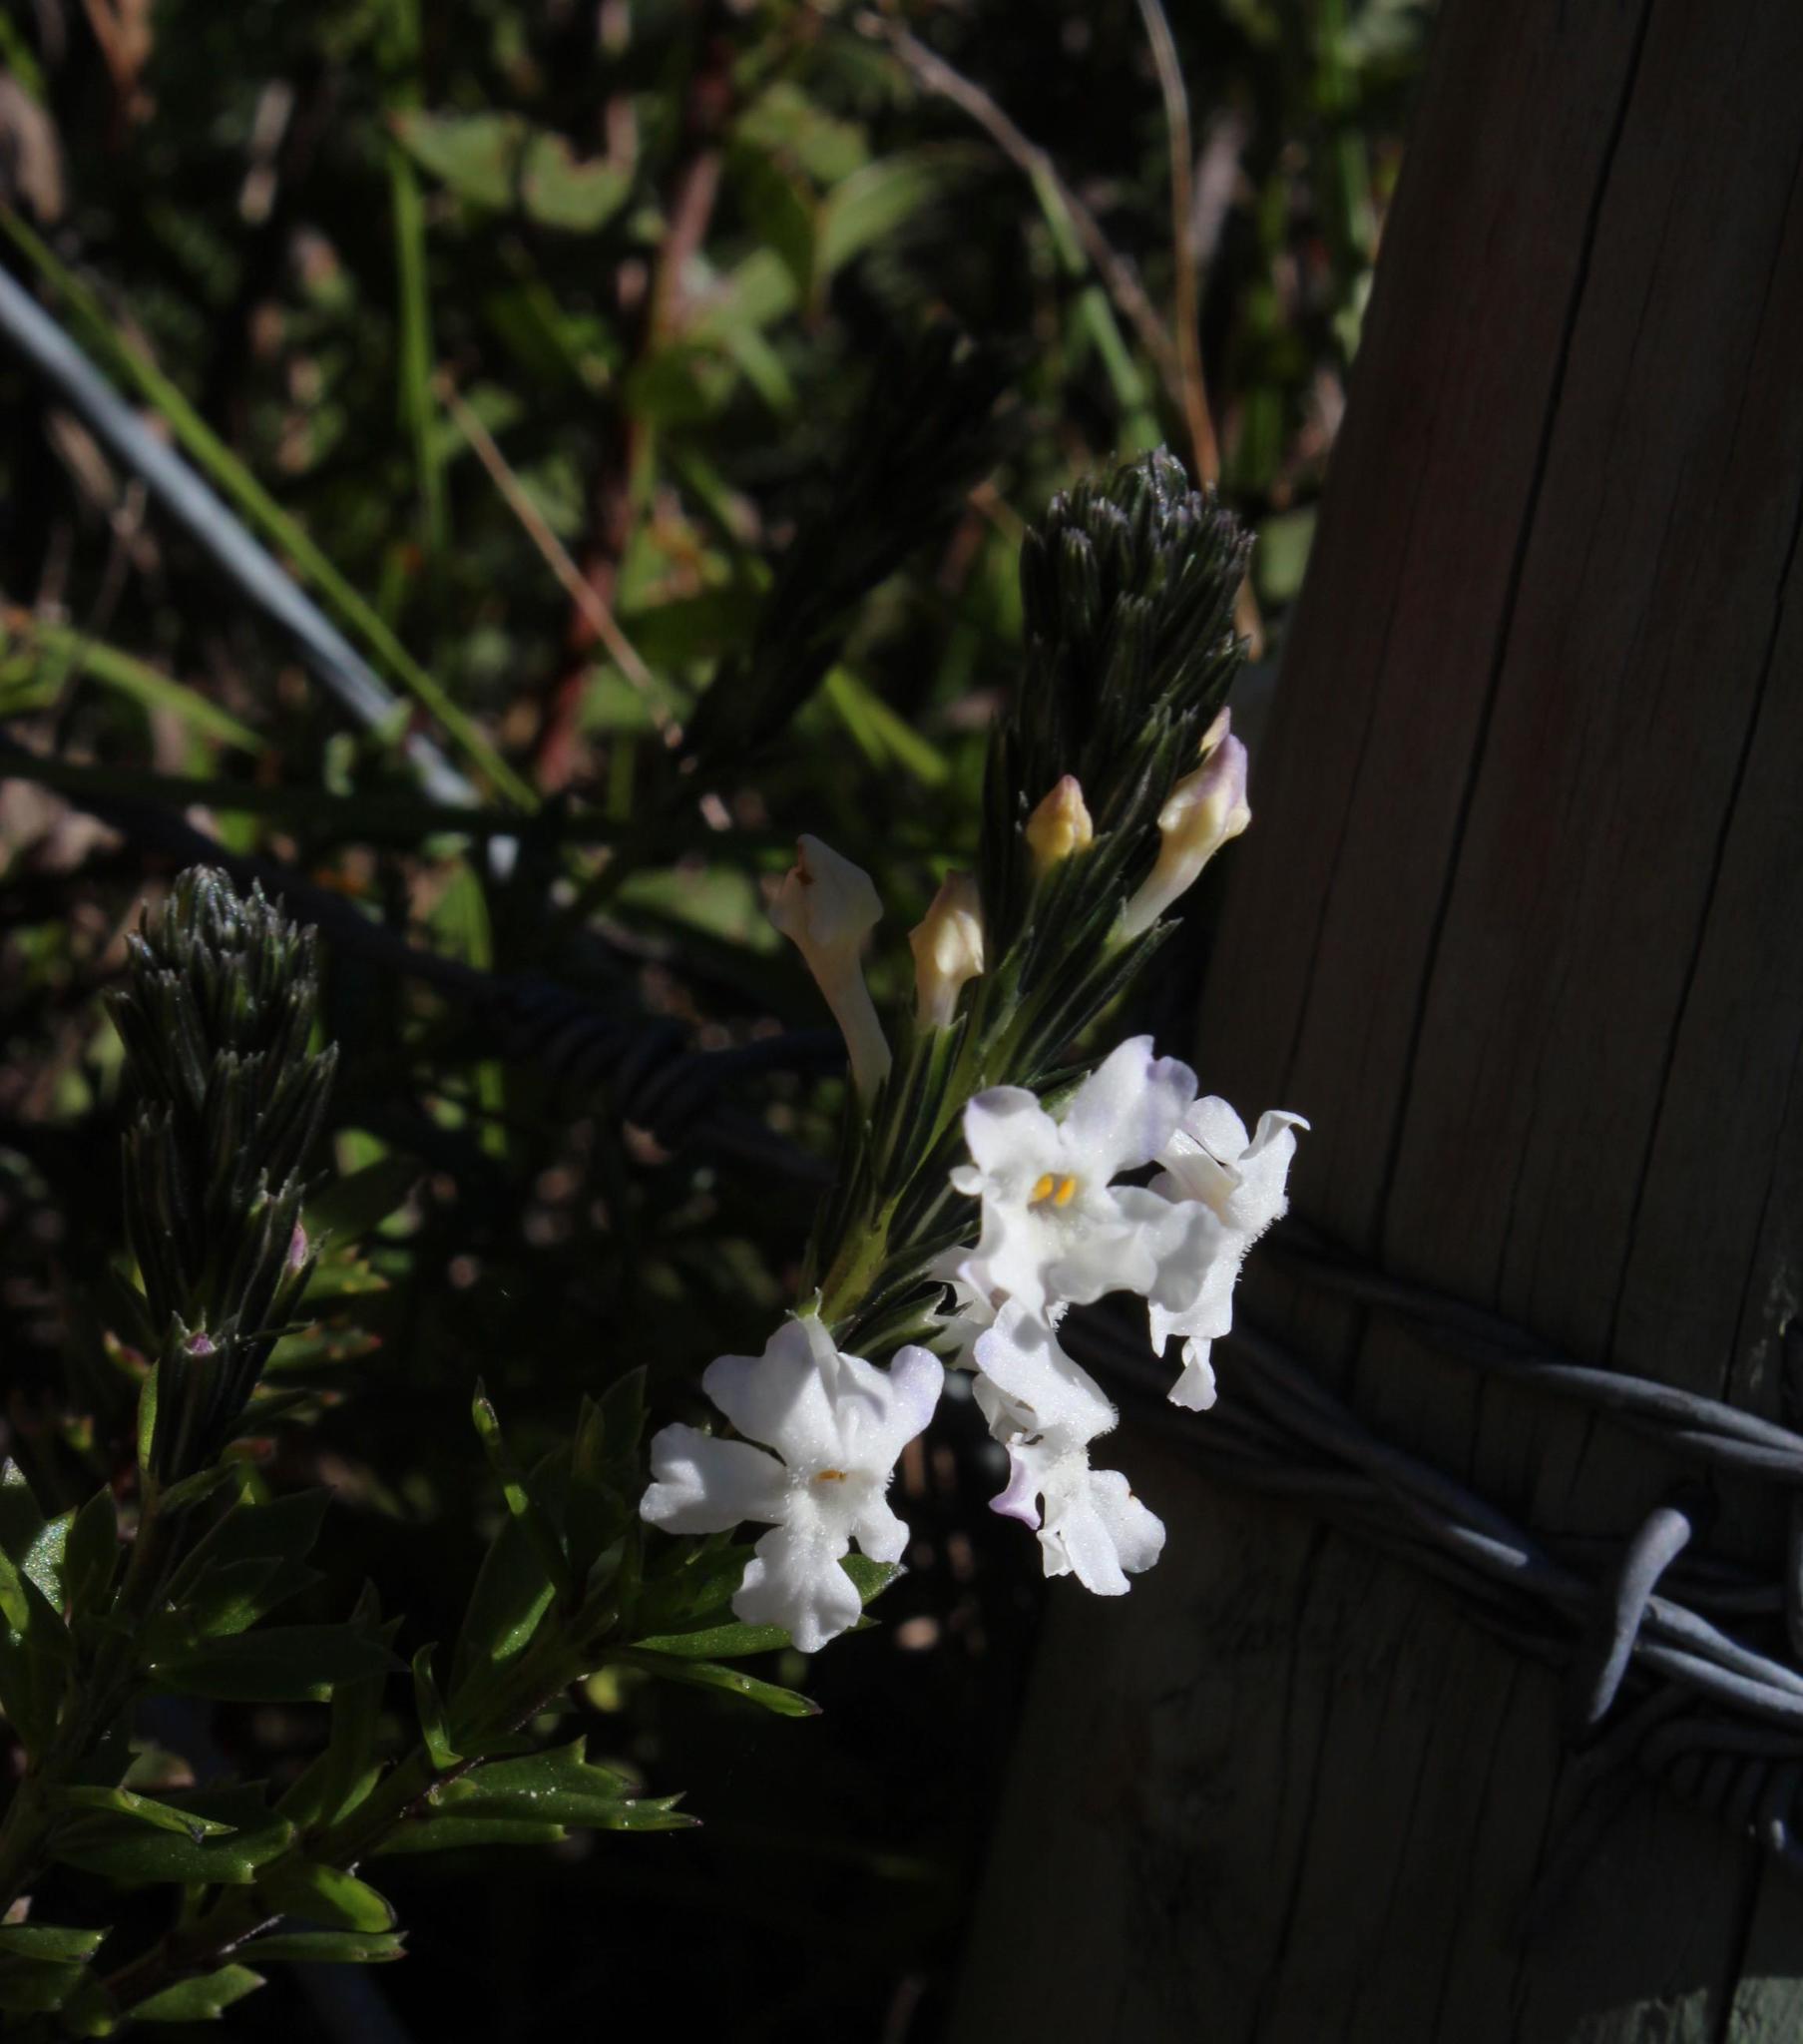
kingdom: Plantae
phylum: Tracheophyta
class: Magnoliopsida
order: Lamiales
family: Verbenaceae
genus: Chascanum
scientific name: Chascanum cernuum
